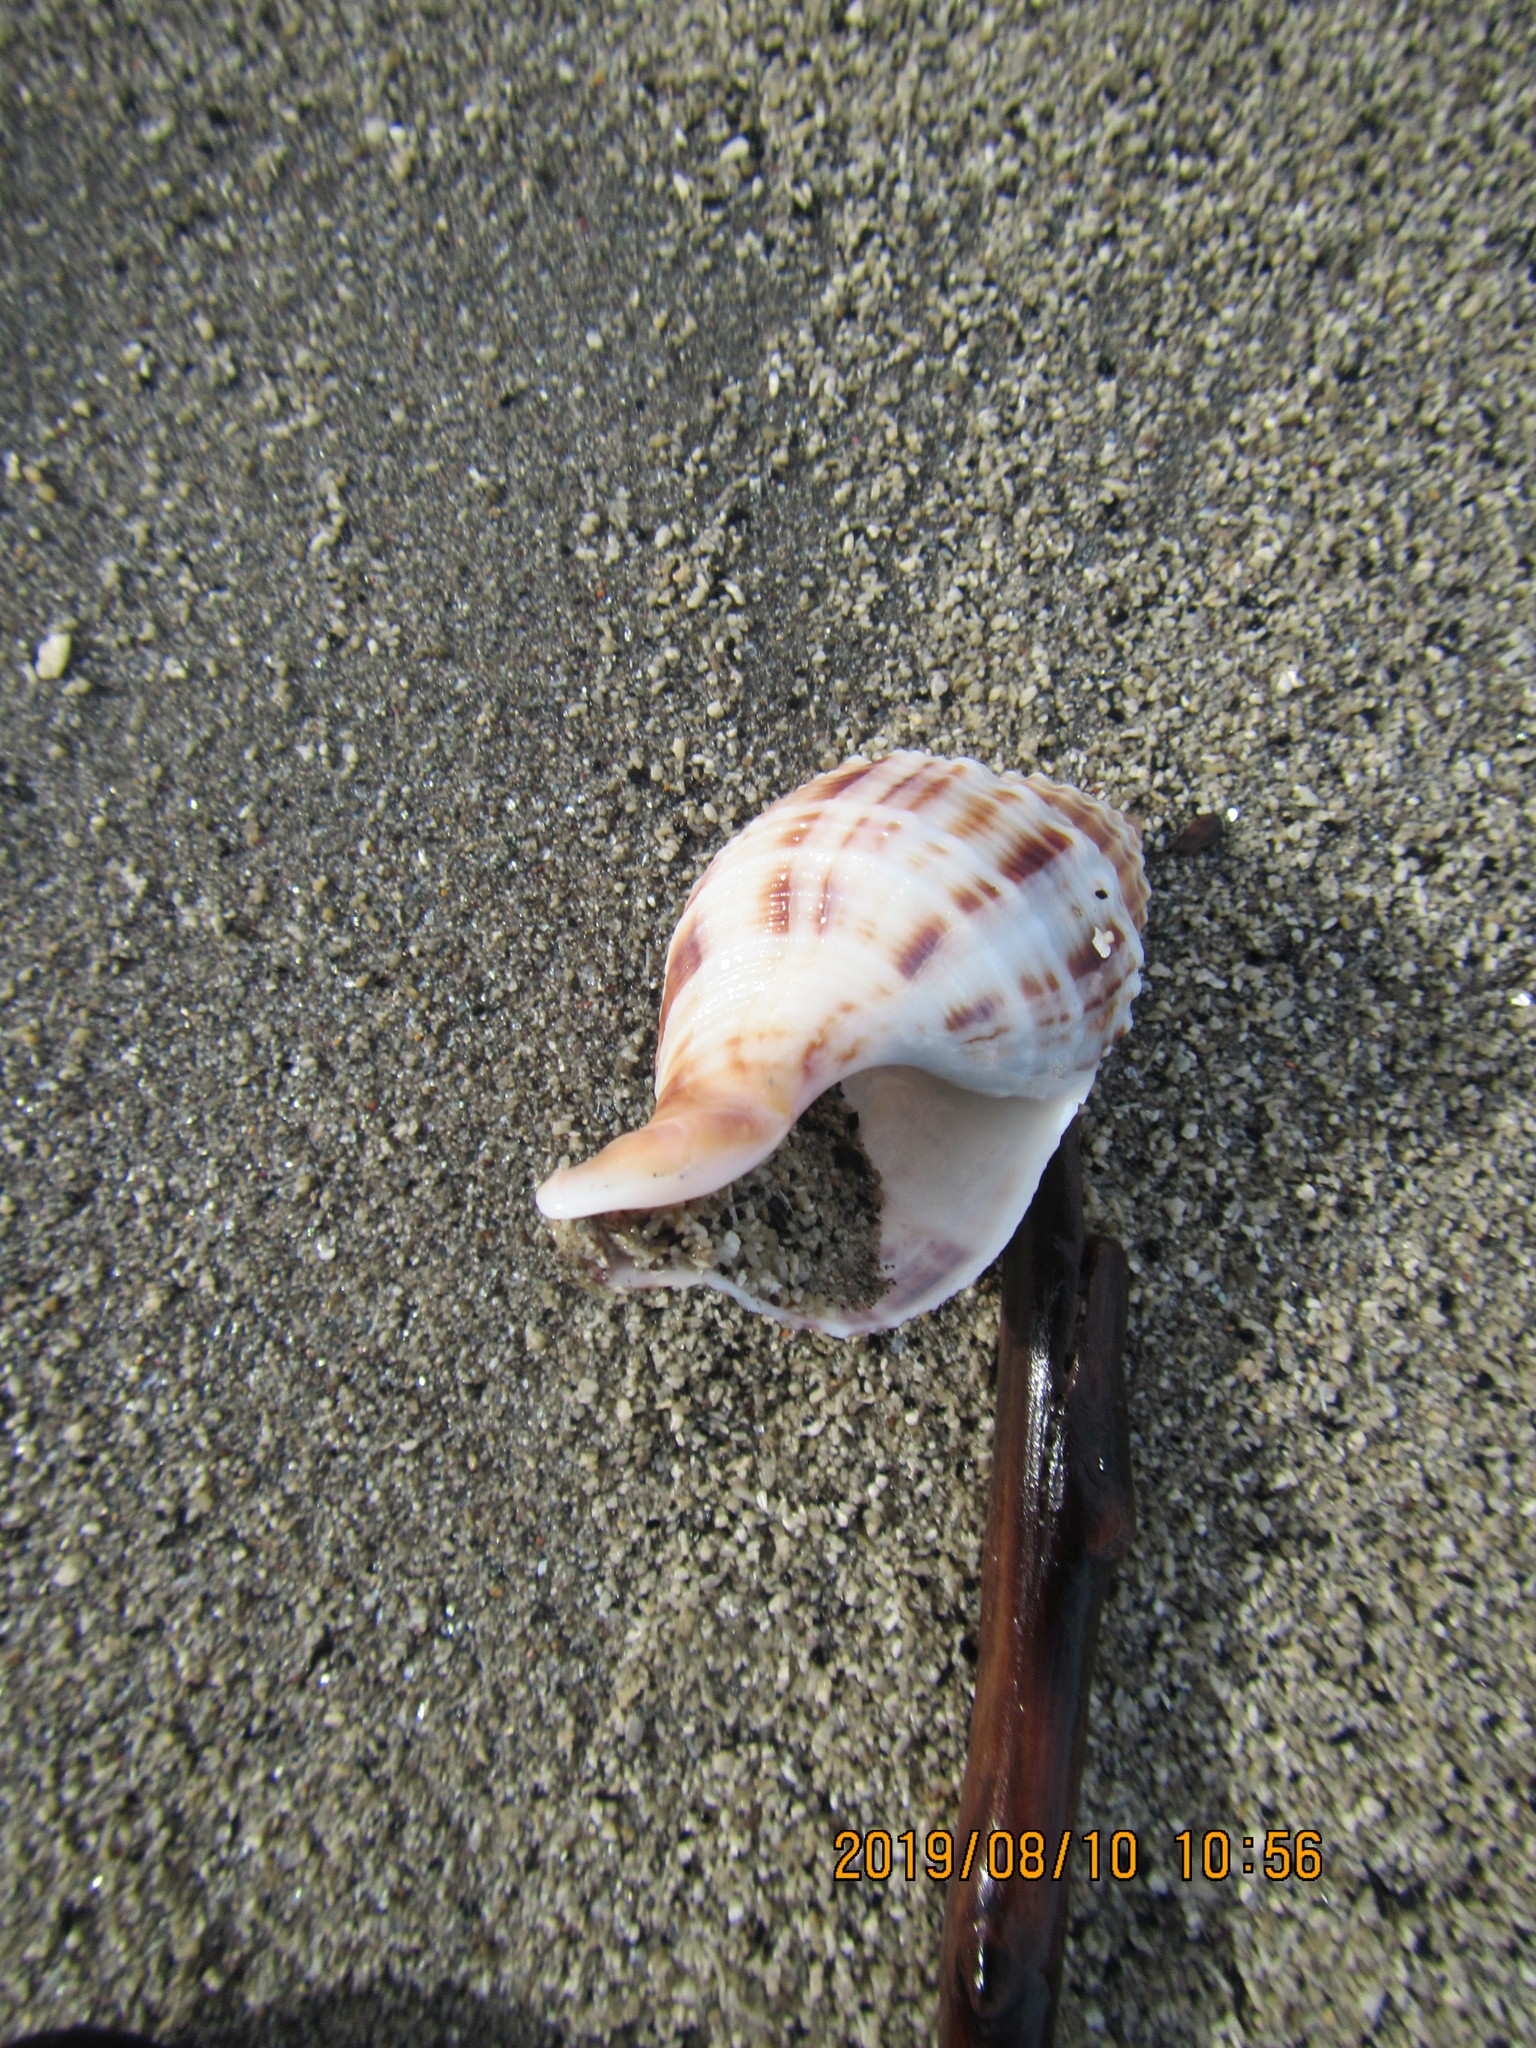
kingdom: Animalia
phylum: Mollusca
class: Gastropoda
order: Neogastropoda
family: Prosiphonidae
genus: Austrofusus
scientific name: Austrofusus glans
